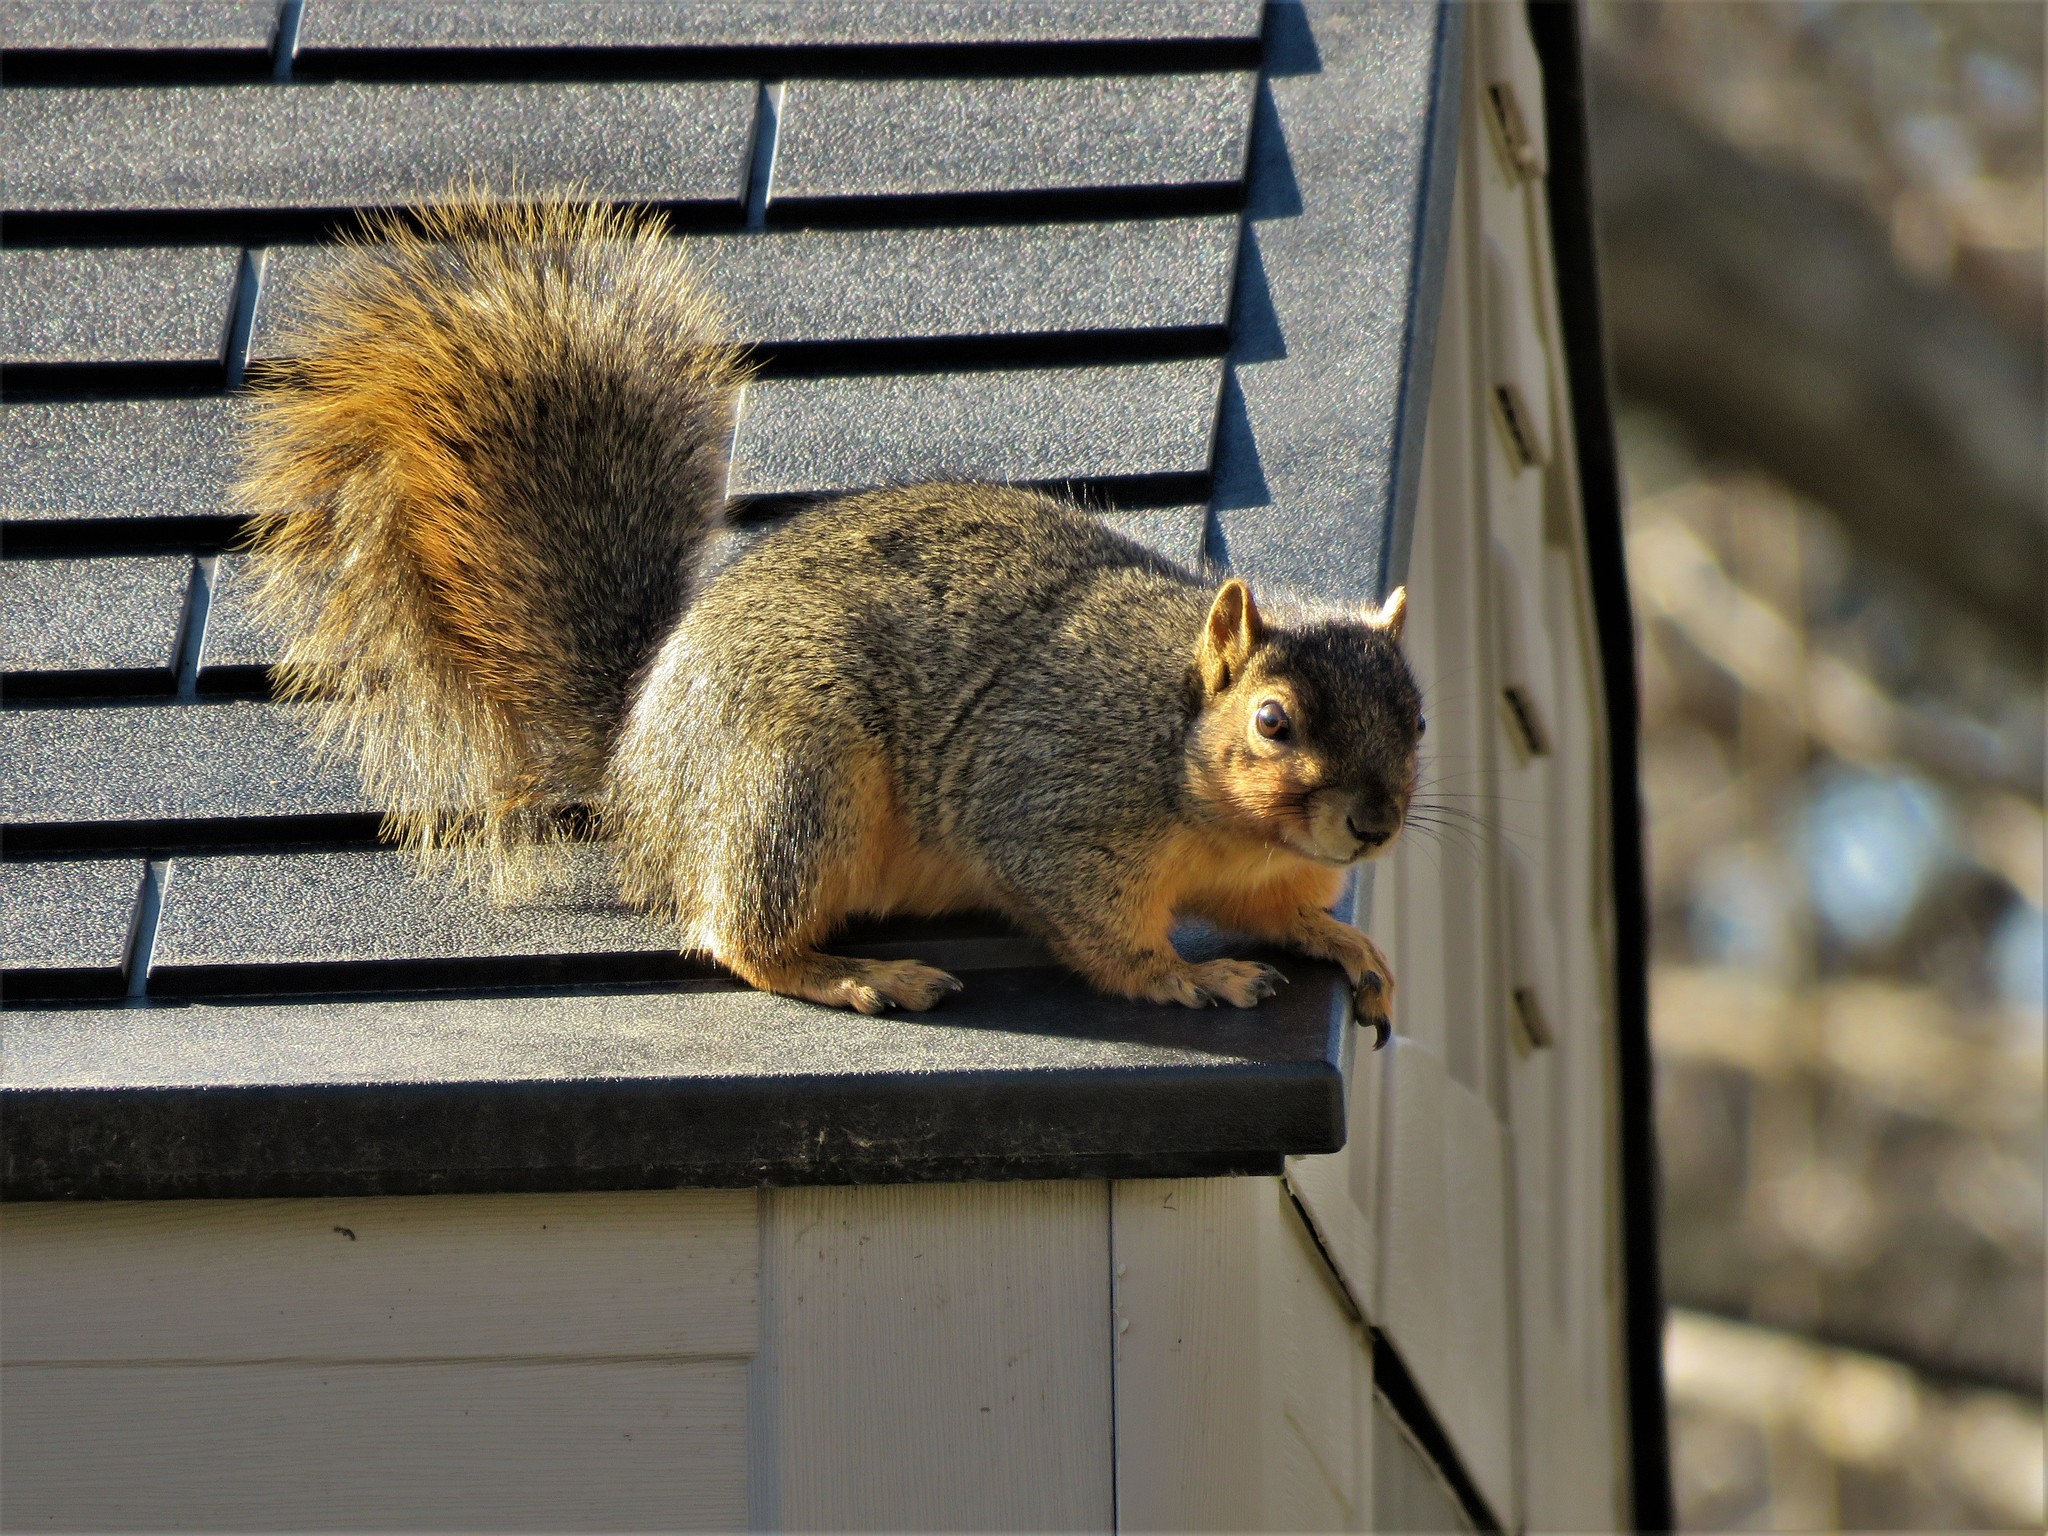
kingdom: Animalia
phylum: Chordata
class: Mammalia
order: Rodentia
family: Sciuridae
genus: Sciurus
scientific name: Sciurus niger
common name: Fox squirrel
